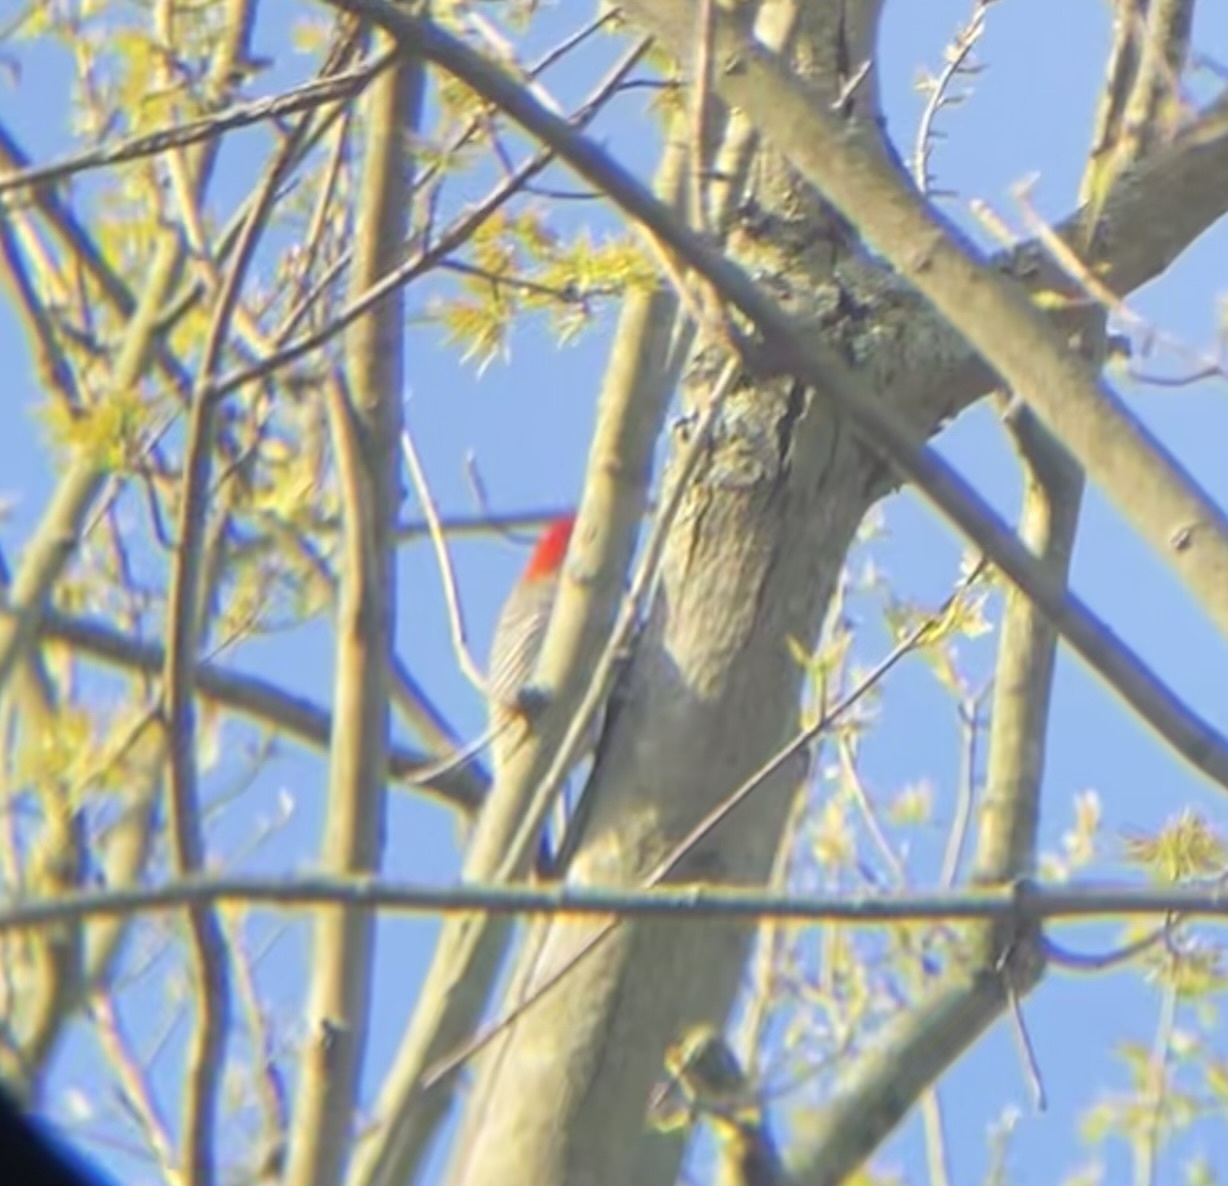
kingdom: Animalia
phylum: Chordata
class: Aves
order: Piciformes
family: Picidae
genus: Melanerpes
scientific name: Melanerpes carolinus
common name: Red-bellied woodpecker
